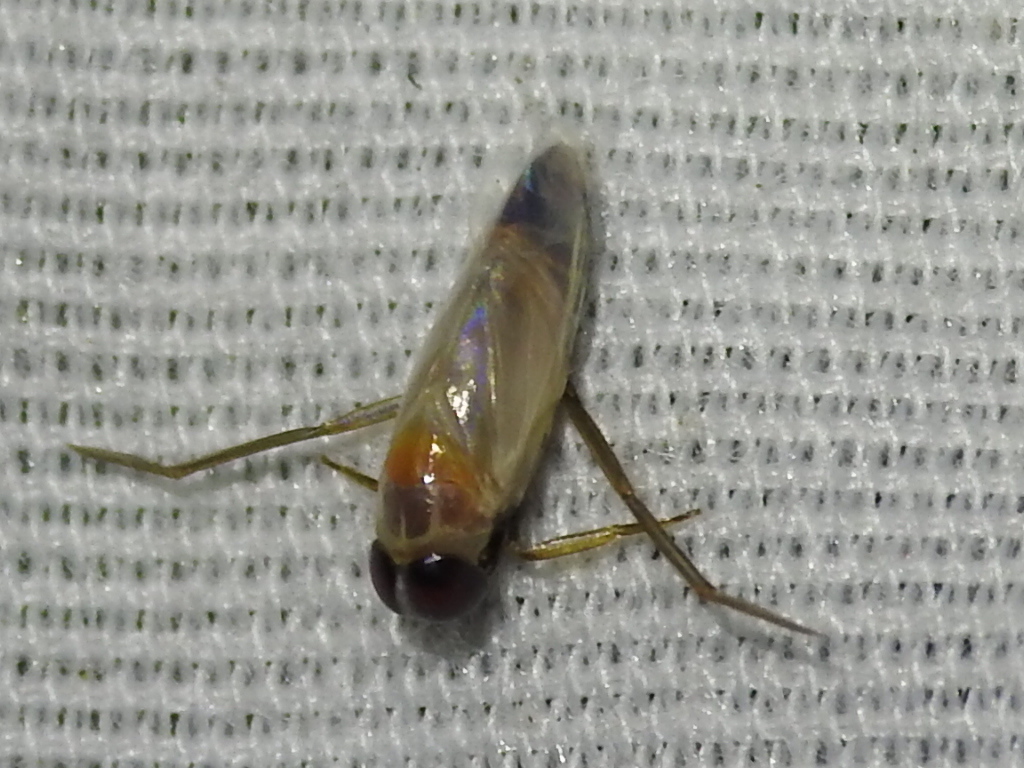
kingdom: Animalia
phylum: Arthropoda
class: Insecta
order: Hemiptera
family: Notonectidae
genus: Buenoa
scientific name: Buenoa
